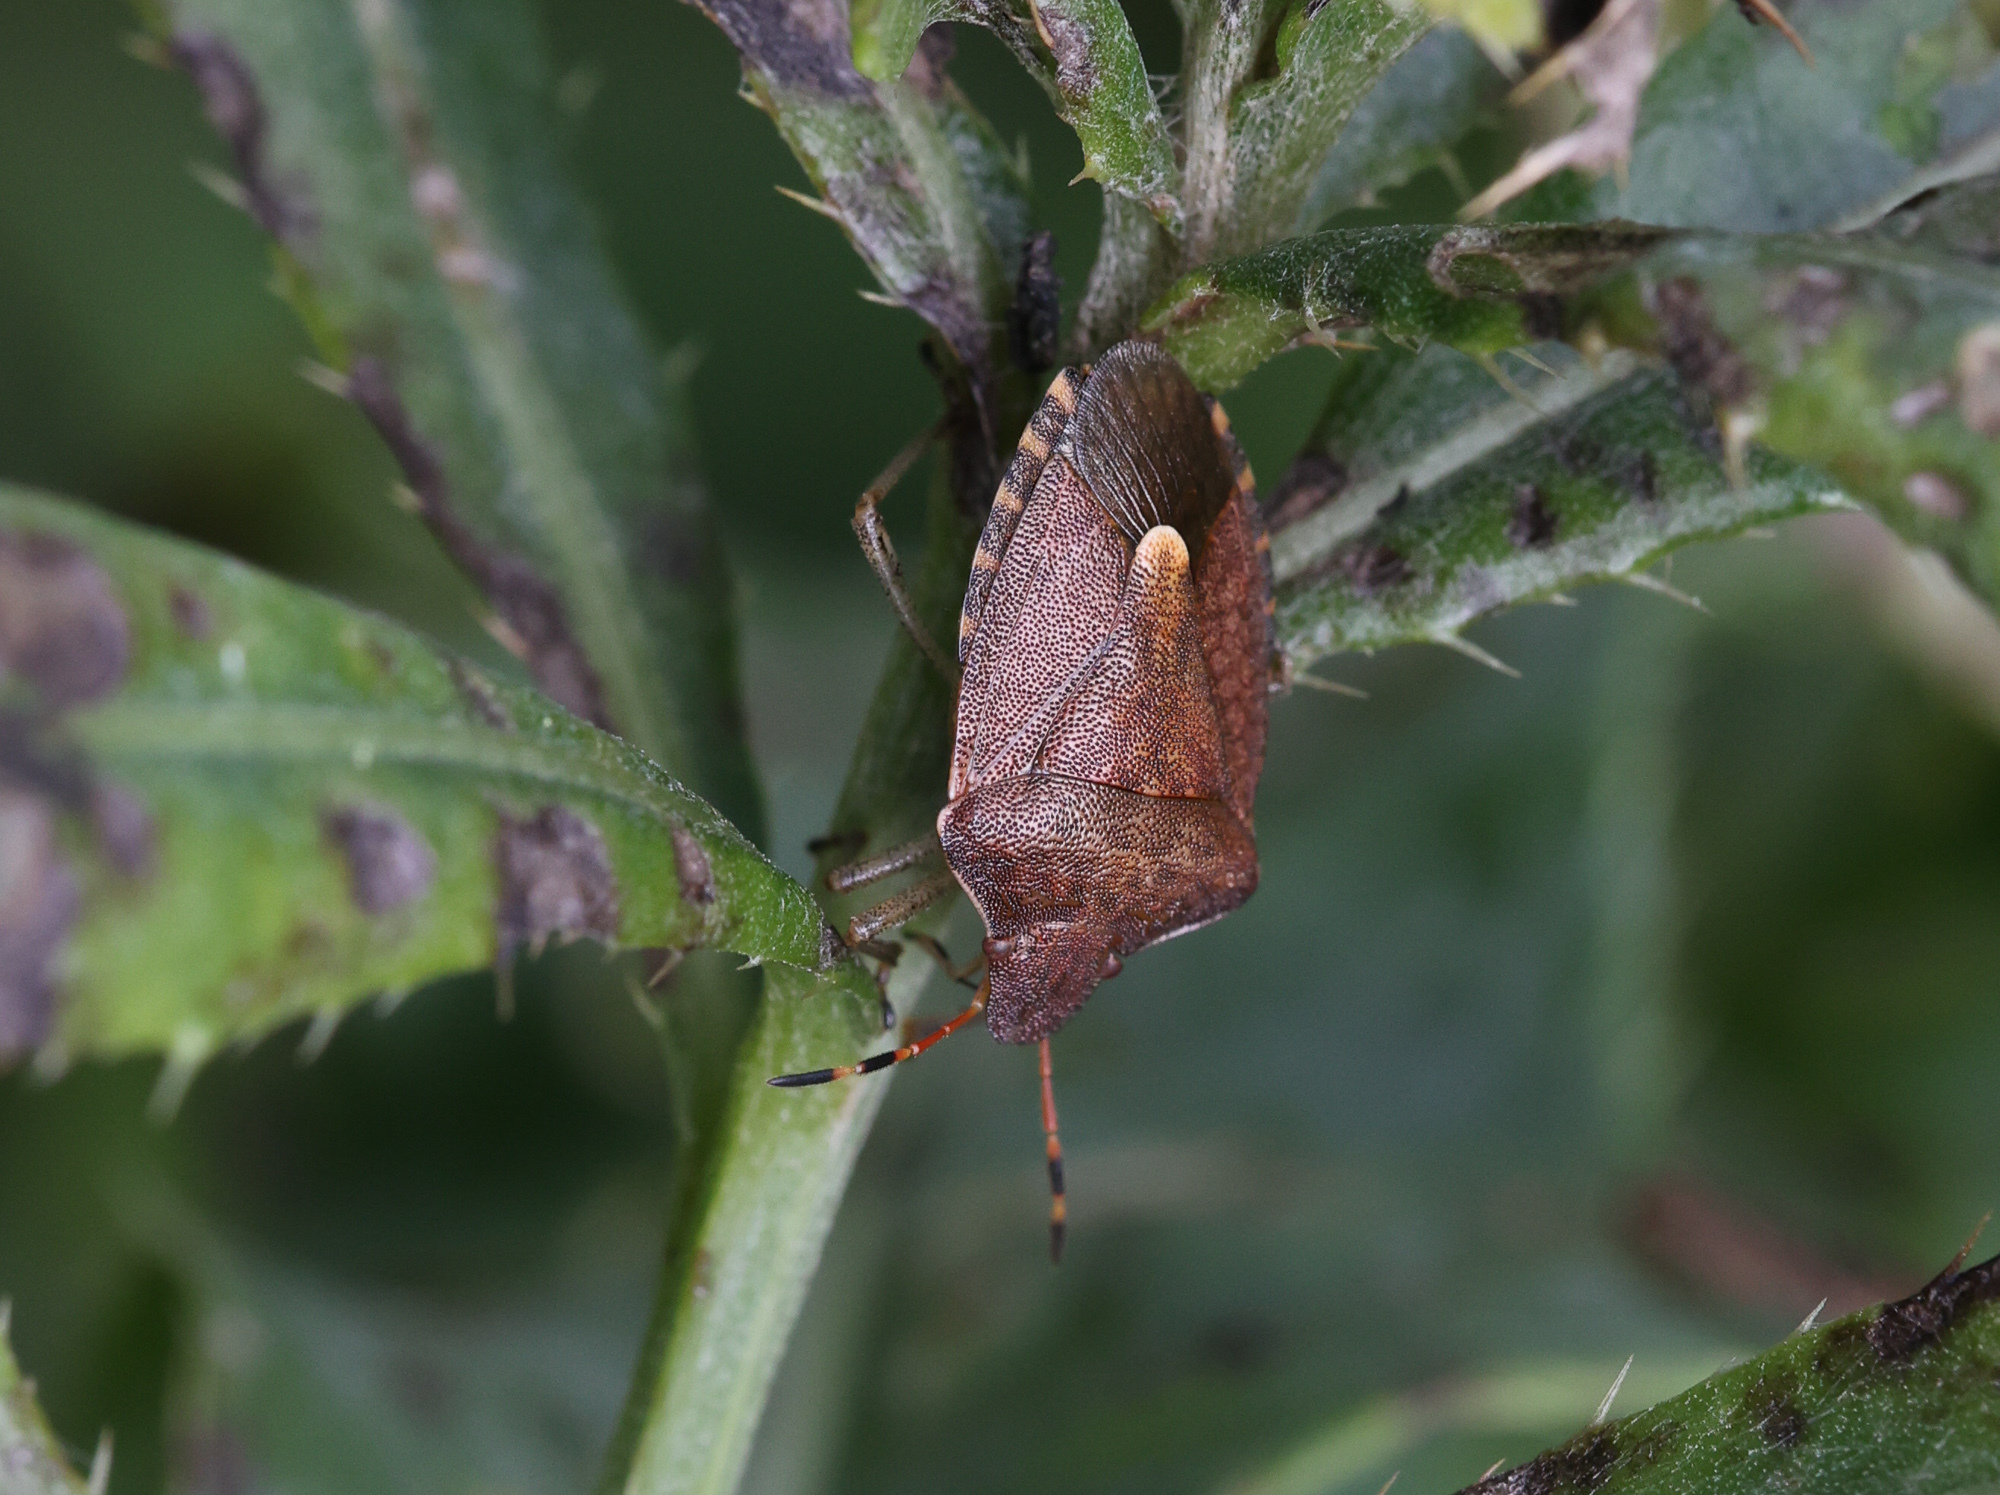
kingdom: Animalia
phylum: Arthropoda
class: Insecta
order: Hemiptera
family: Pentatomidae
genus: Holcostethus
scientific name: Holcostethus strictus
